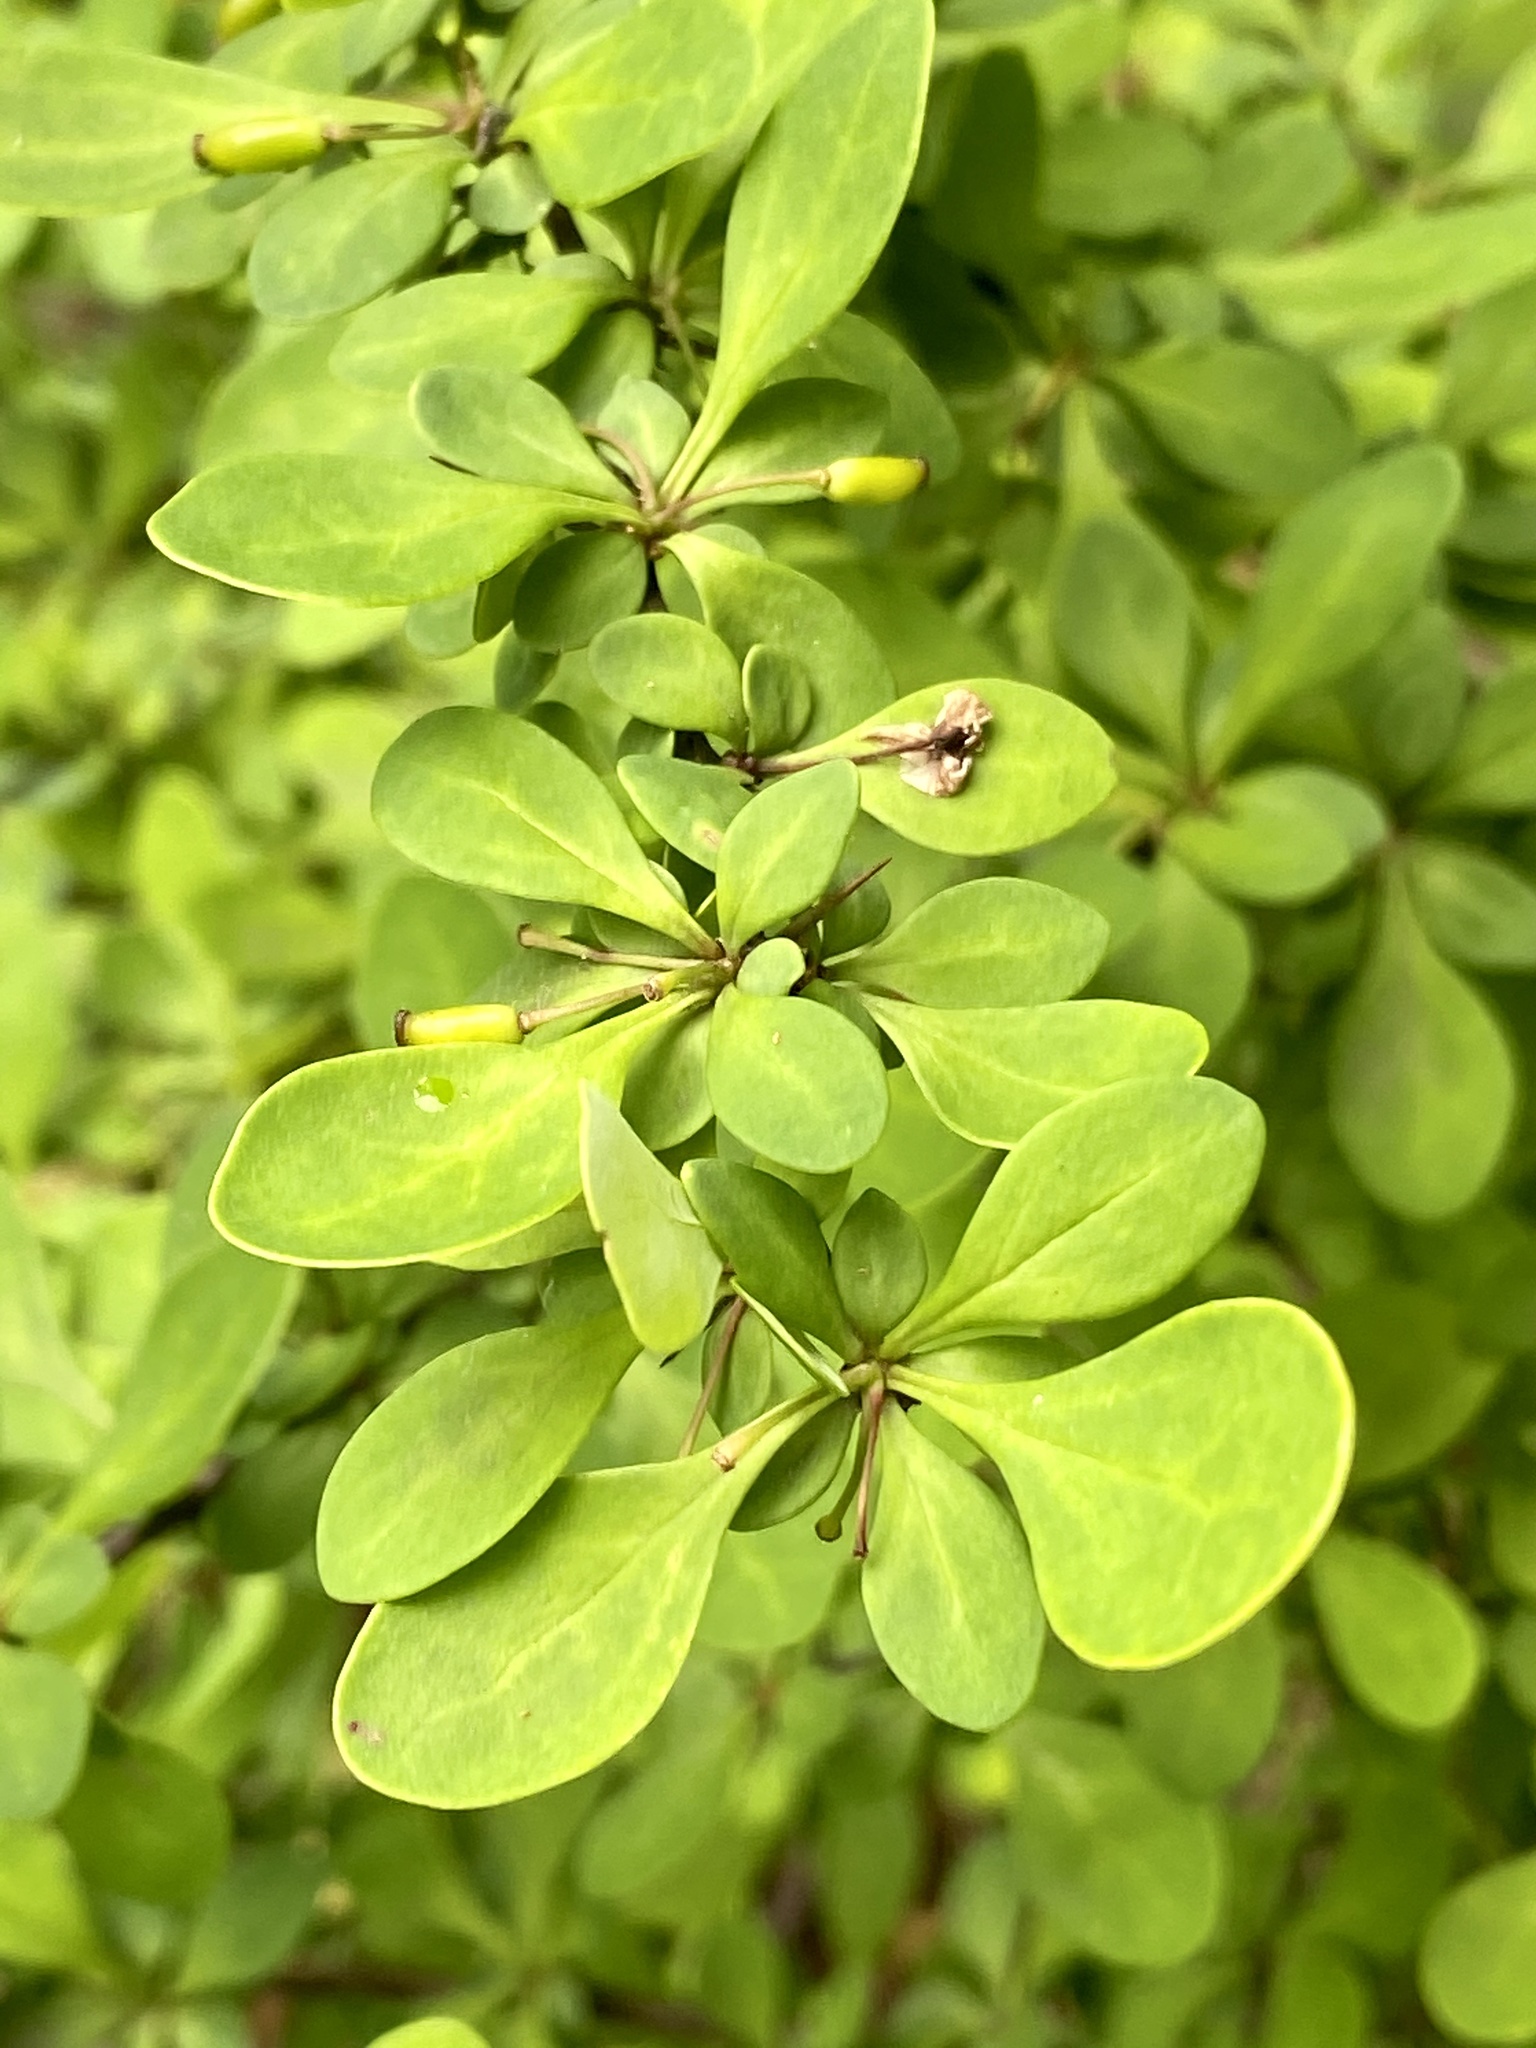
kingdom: Plantae
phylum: Tracheophyta
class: Magnoliopsida
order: Ranunculales
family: Berberidaceae
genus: Berberis
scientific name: Berberis thunbergii
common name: Japanese barberry
